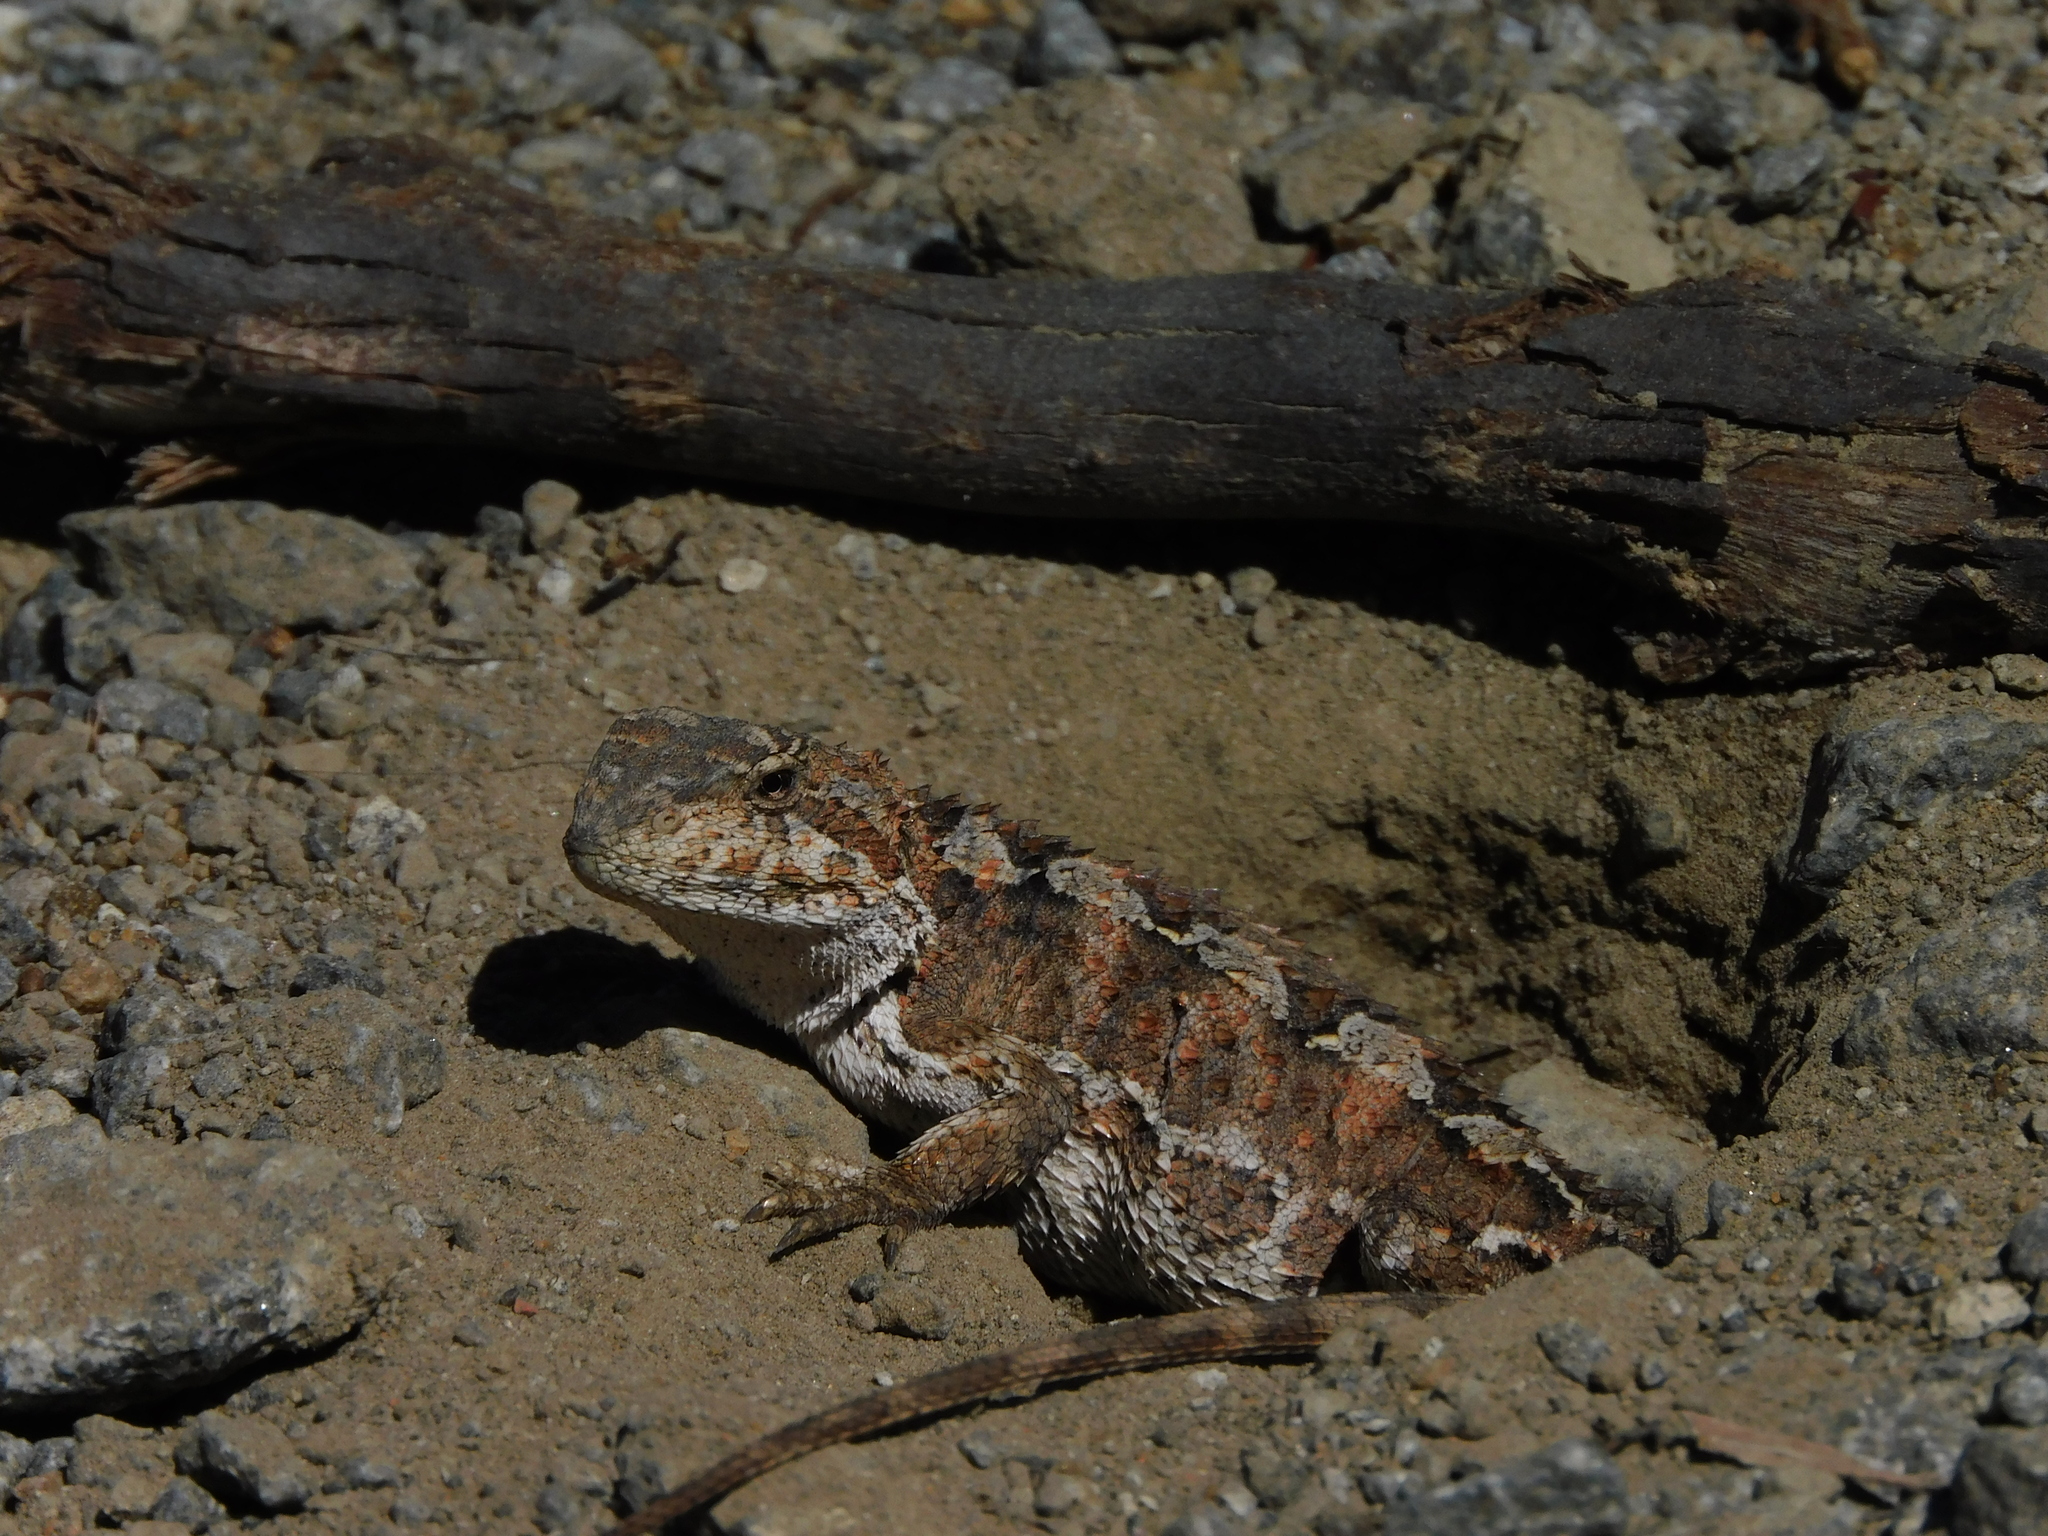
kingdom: Animalia
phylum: Chordata
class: Squamata
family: Agamidae
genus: Rankinia
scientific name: Rankinia diemensis
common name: Mountain dragon
